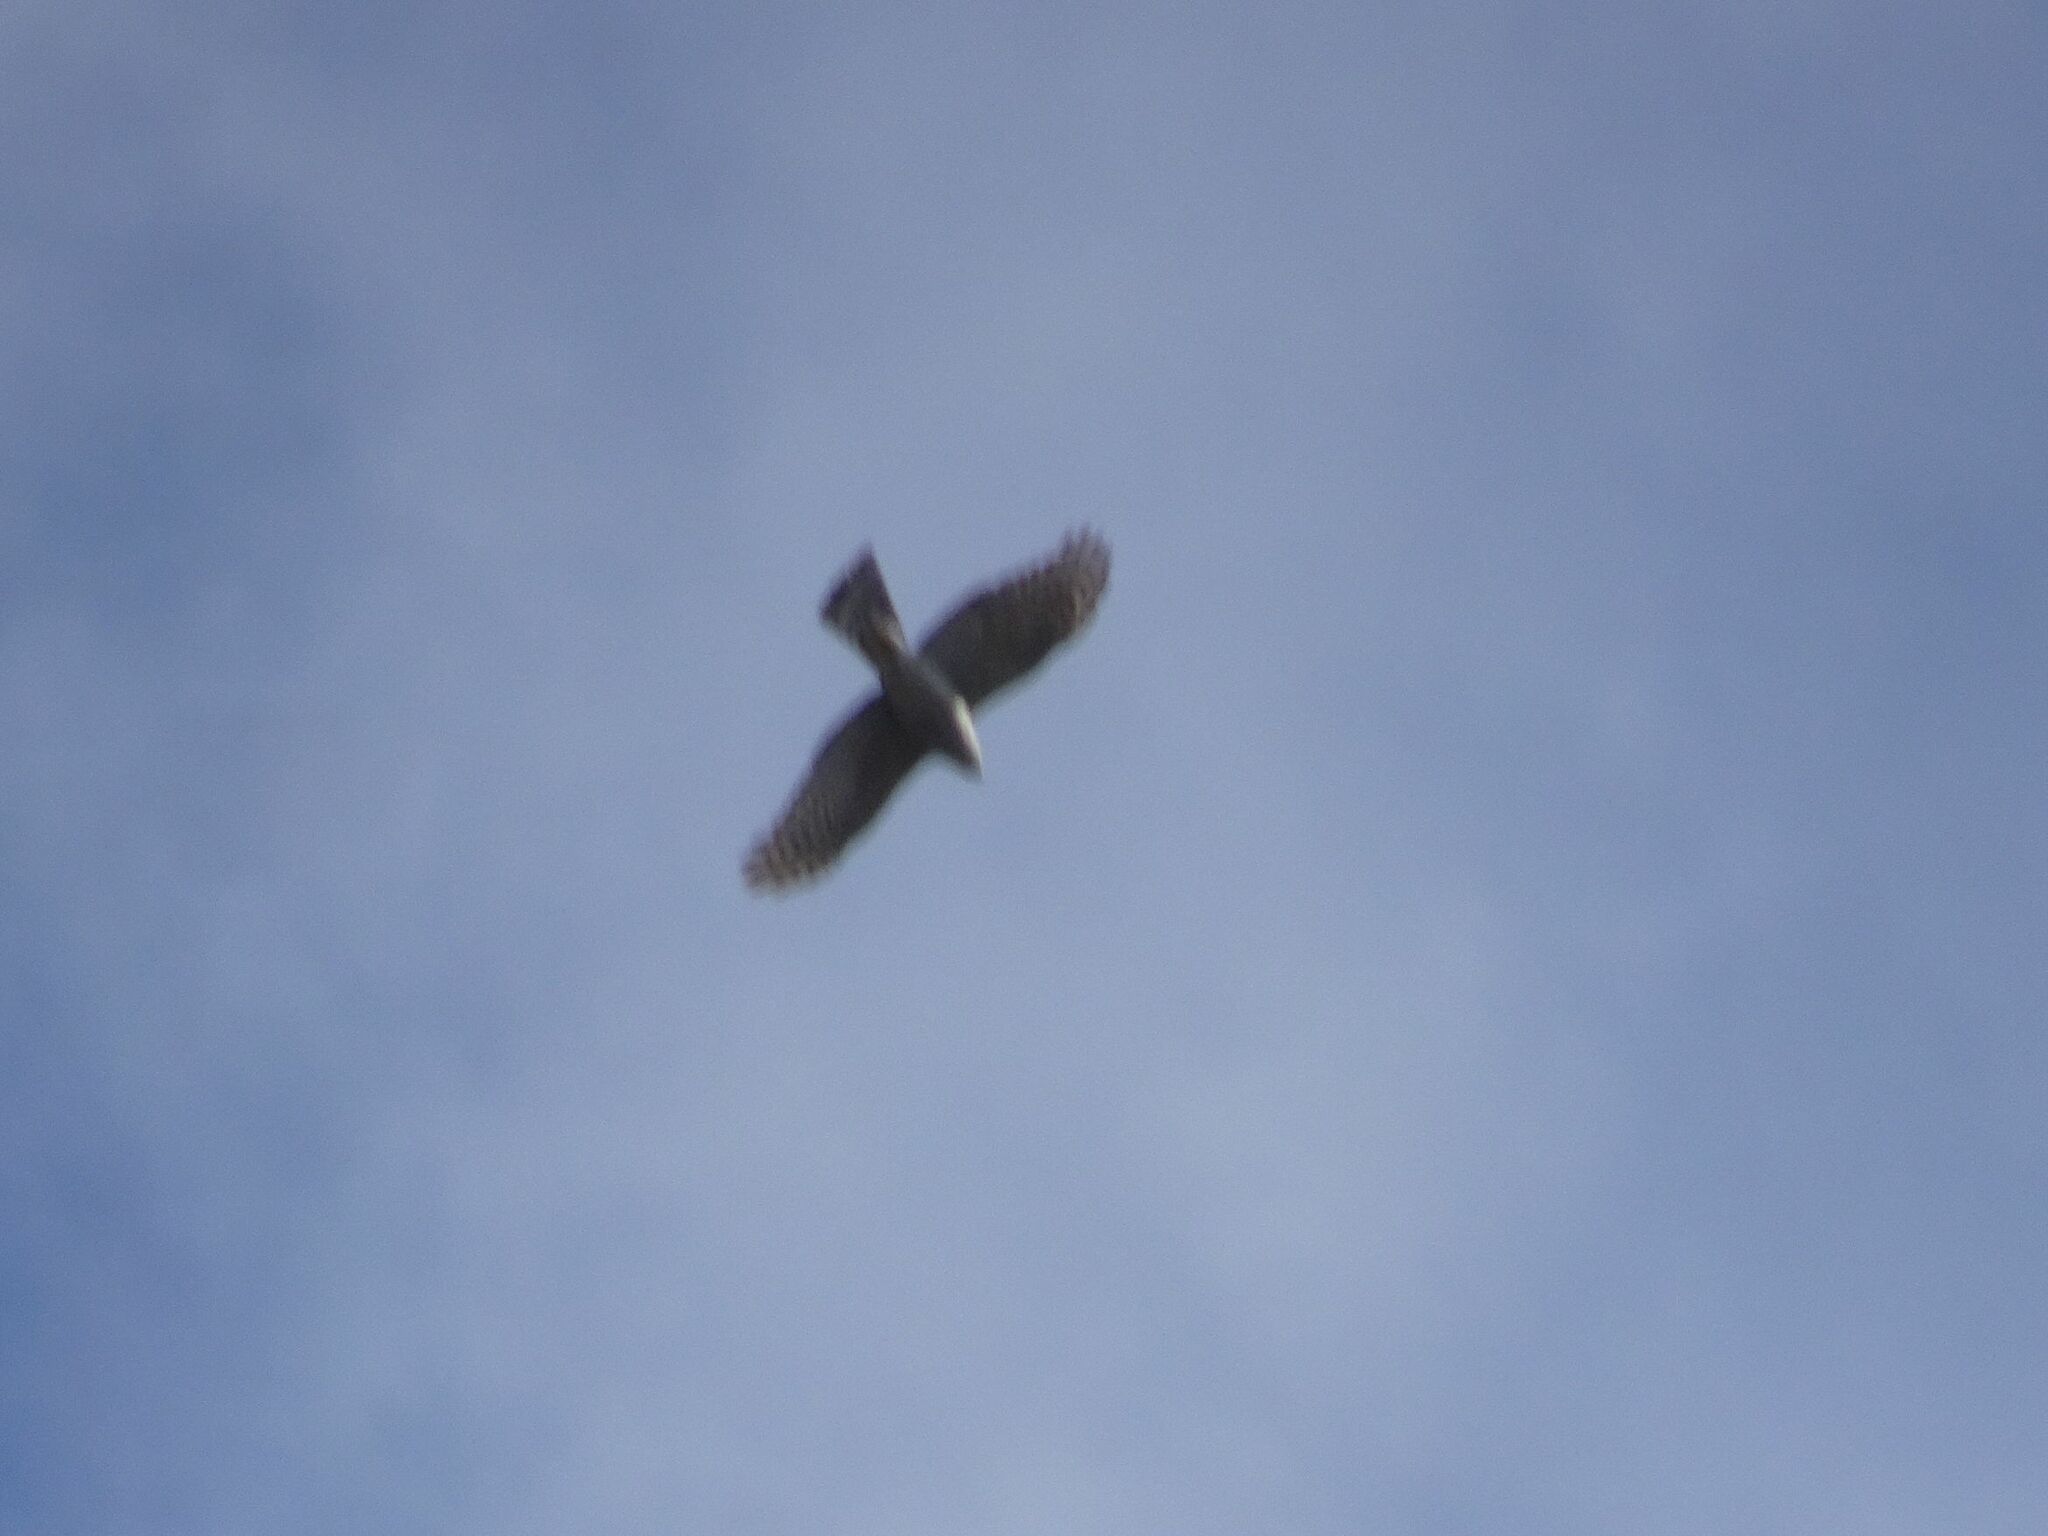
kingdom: Animalia
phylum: Chordata
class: Aves
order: Accipitriformes
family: Accipitridae
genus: Accipiter
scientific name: Accipiter nisus
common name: Eurasian sparrowhawk
